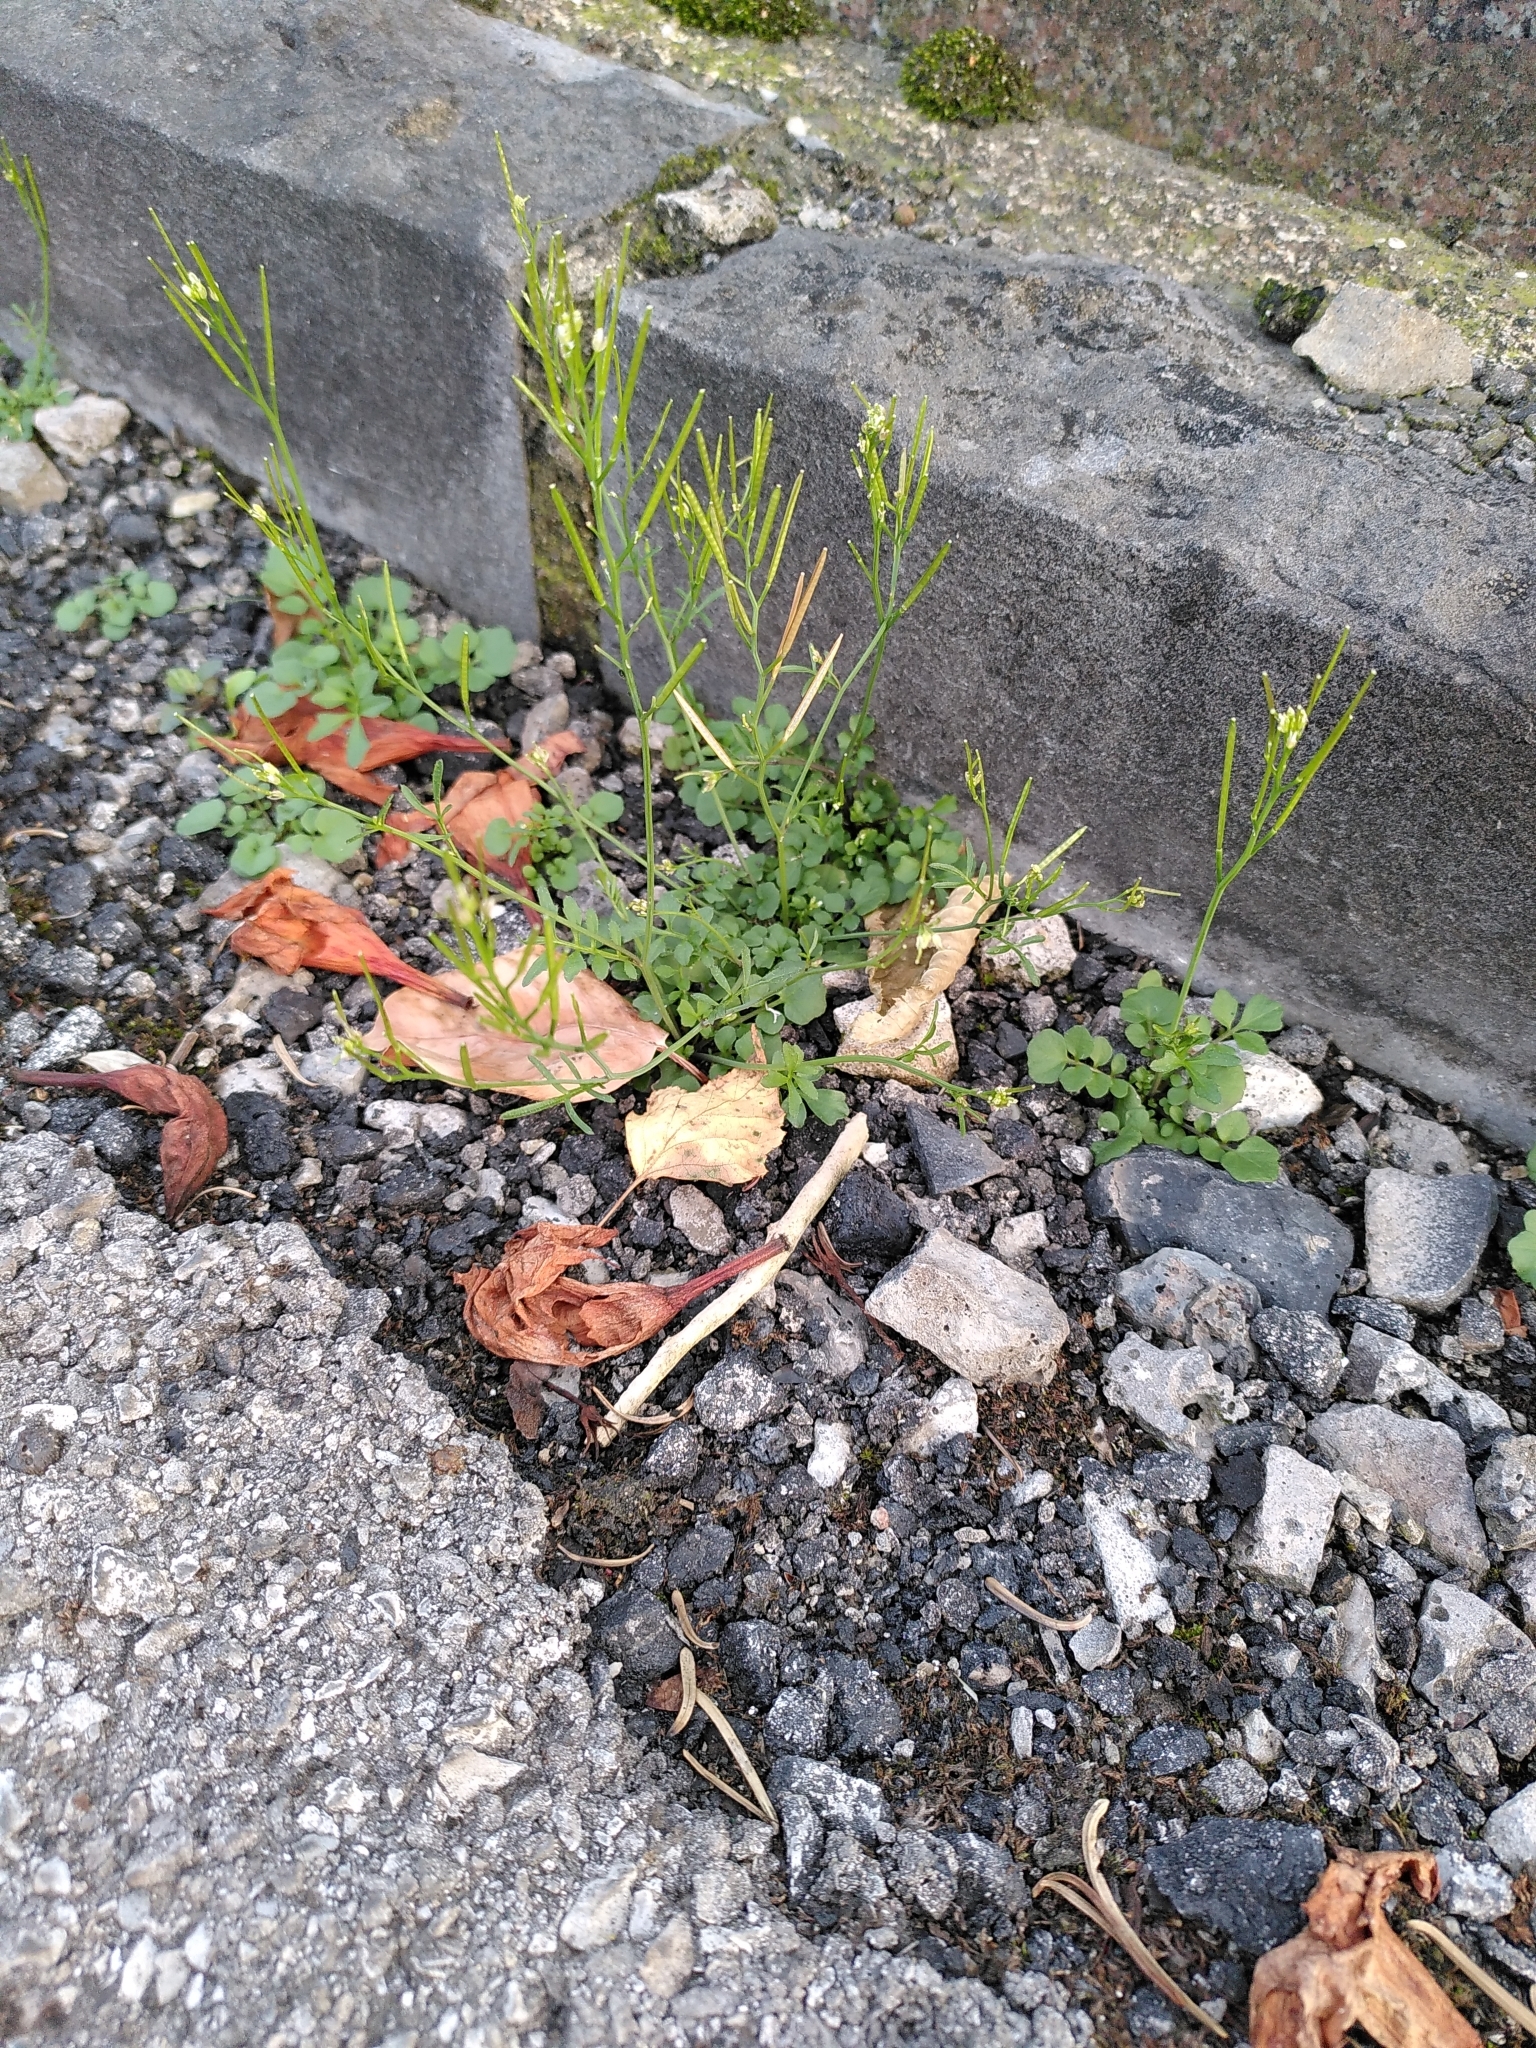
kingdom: Plantae
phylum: Tracheophyta
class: Magnoliopsida
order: Brassicales
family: Brassicaceae
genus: Cardamine
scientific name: Cardamine hirsuta
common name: Hairy bittercress
